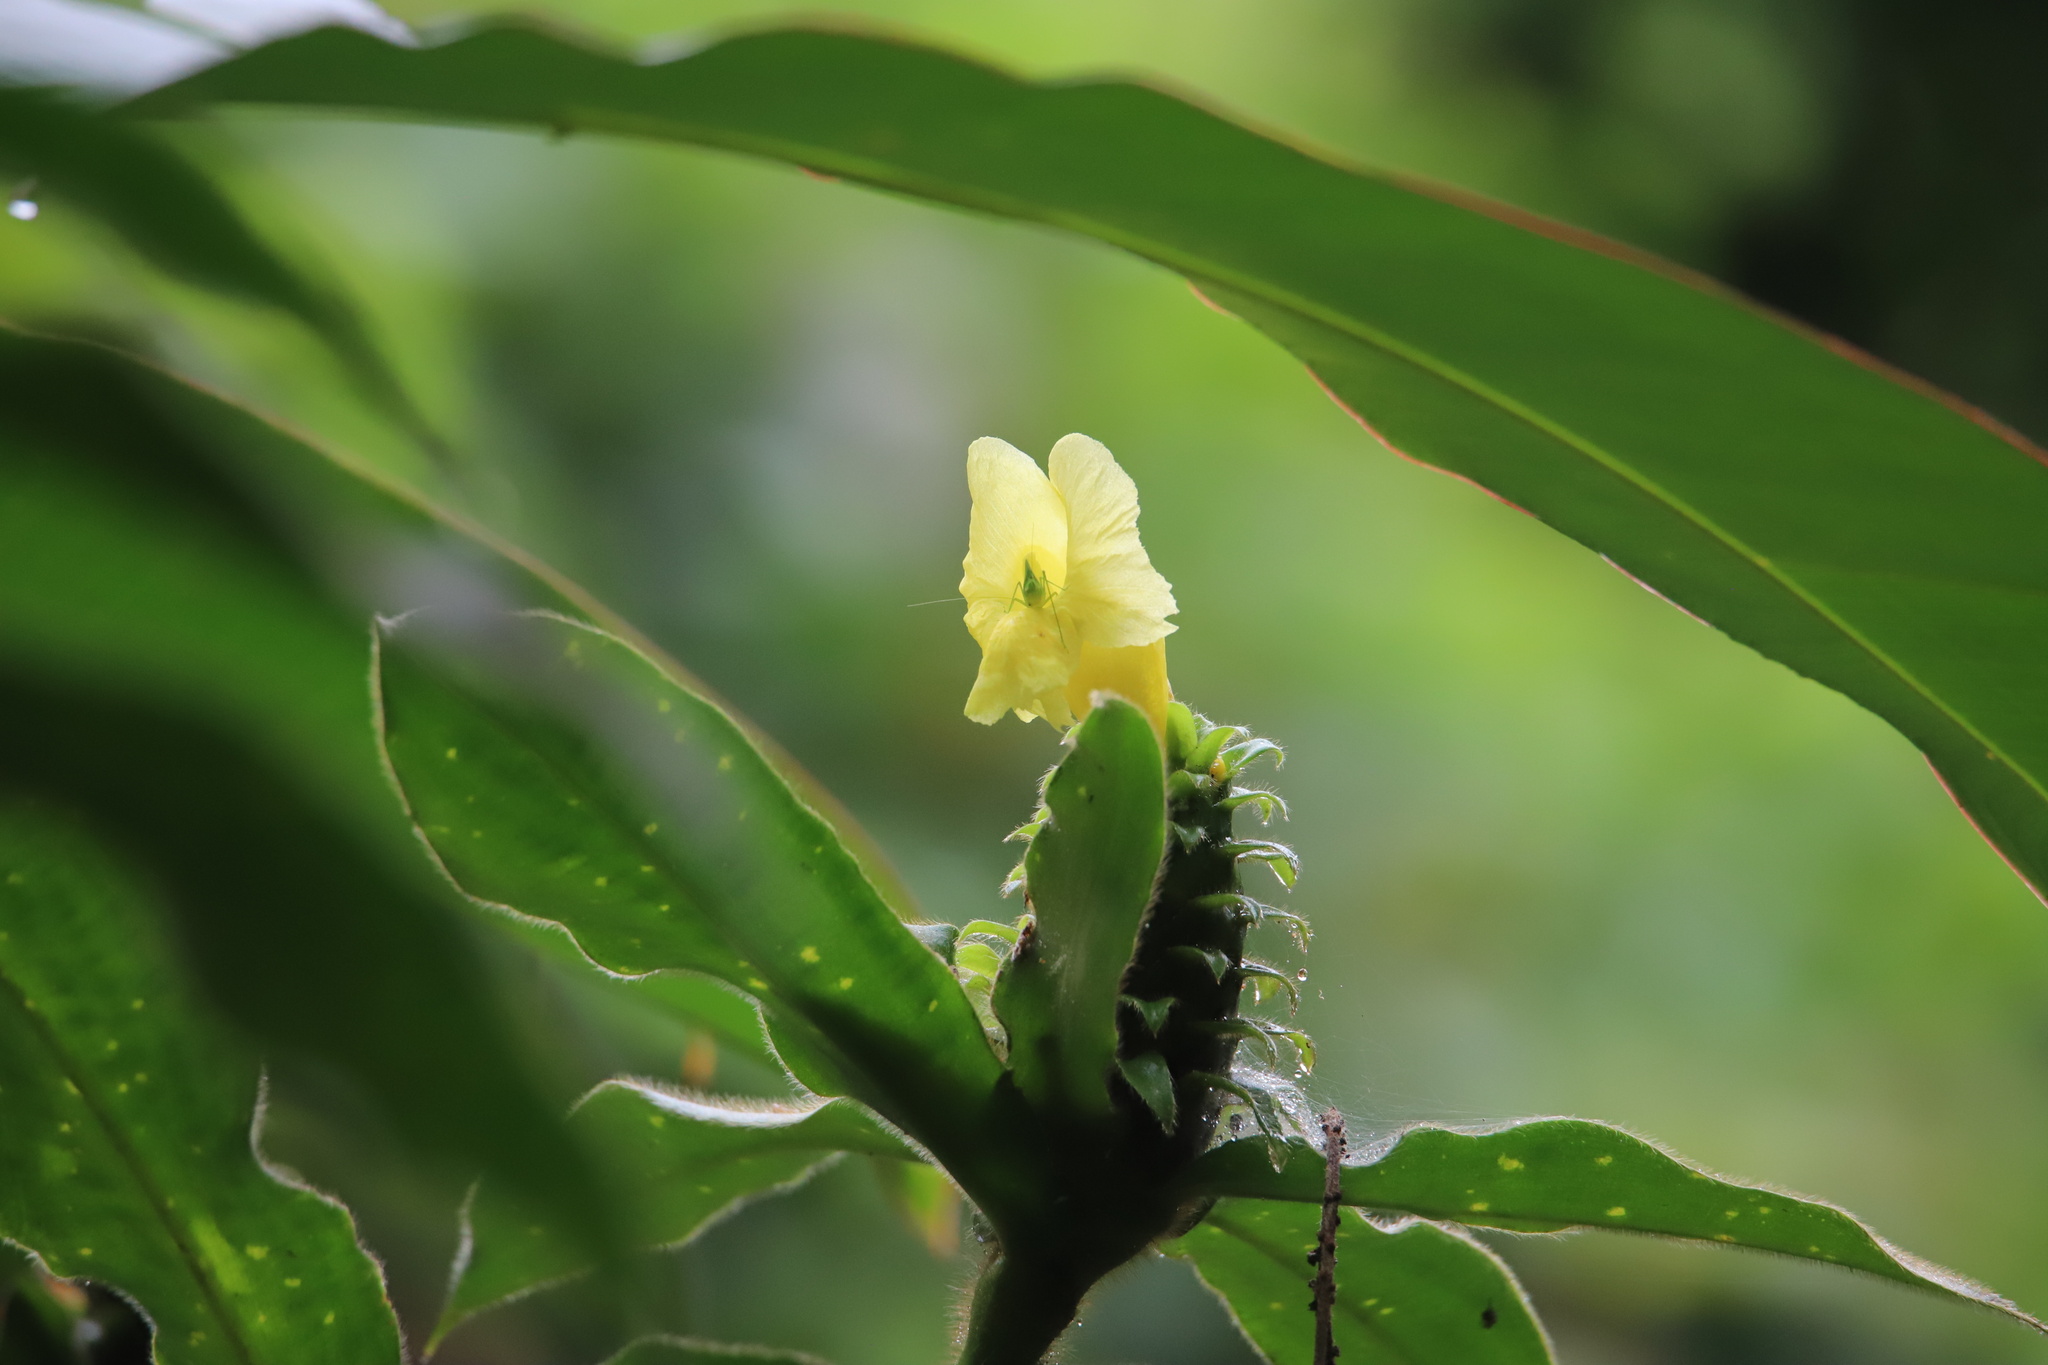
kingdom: Plantae
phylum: Tracheophyta
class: Liliopsida
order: Zingiberales
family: Costaceae
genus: Costus
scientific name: Costus villosissimus
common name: Spiral flag
